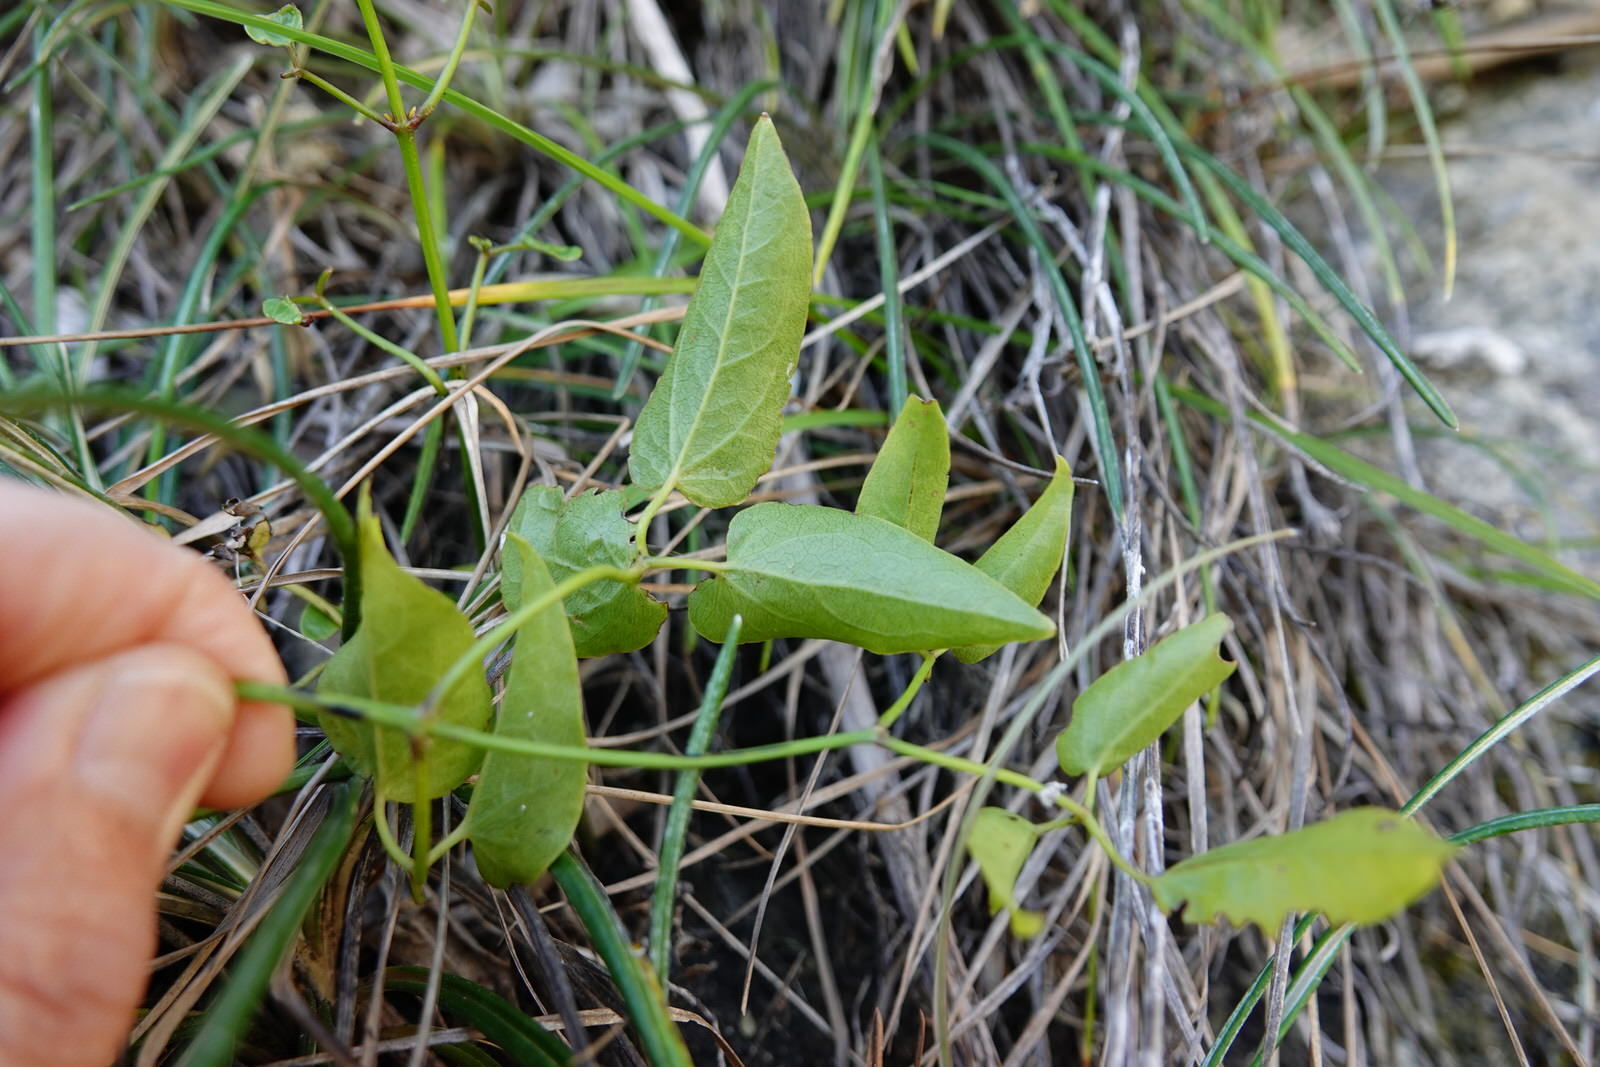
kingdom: Plantae
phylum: Tracheophyta
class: Magnoliopsida
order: Ranunculales
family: Ranunculaceae
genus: Clematis
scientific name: Clematis forsteri
